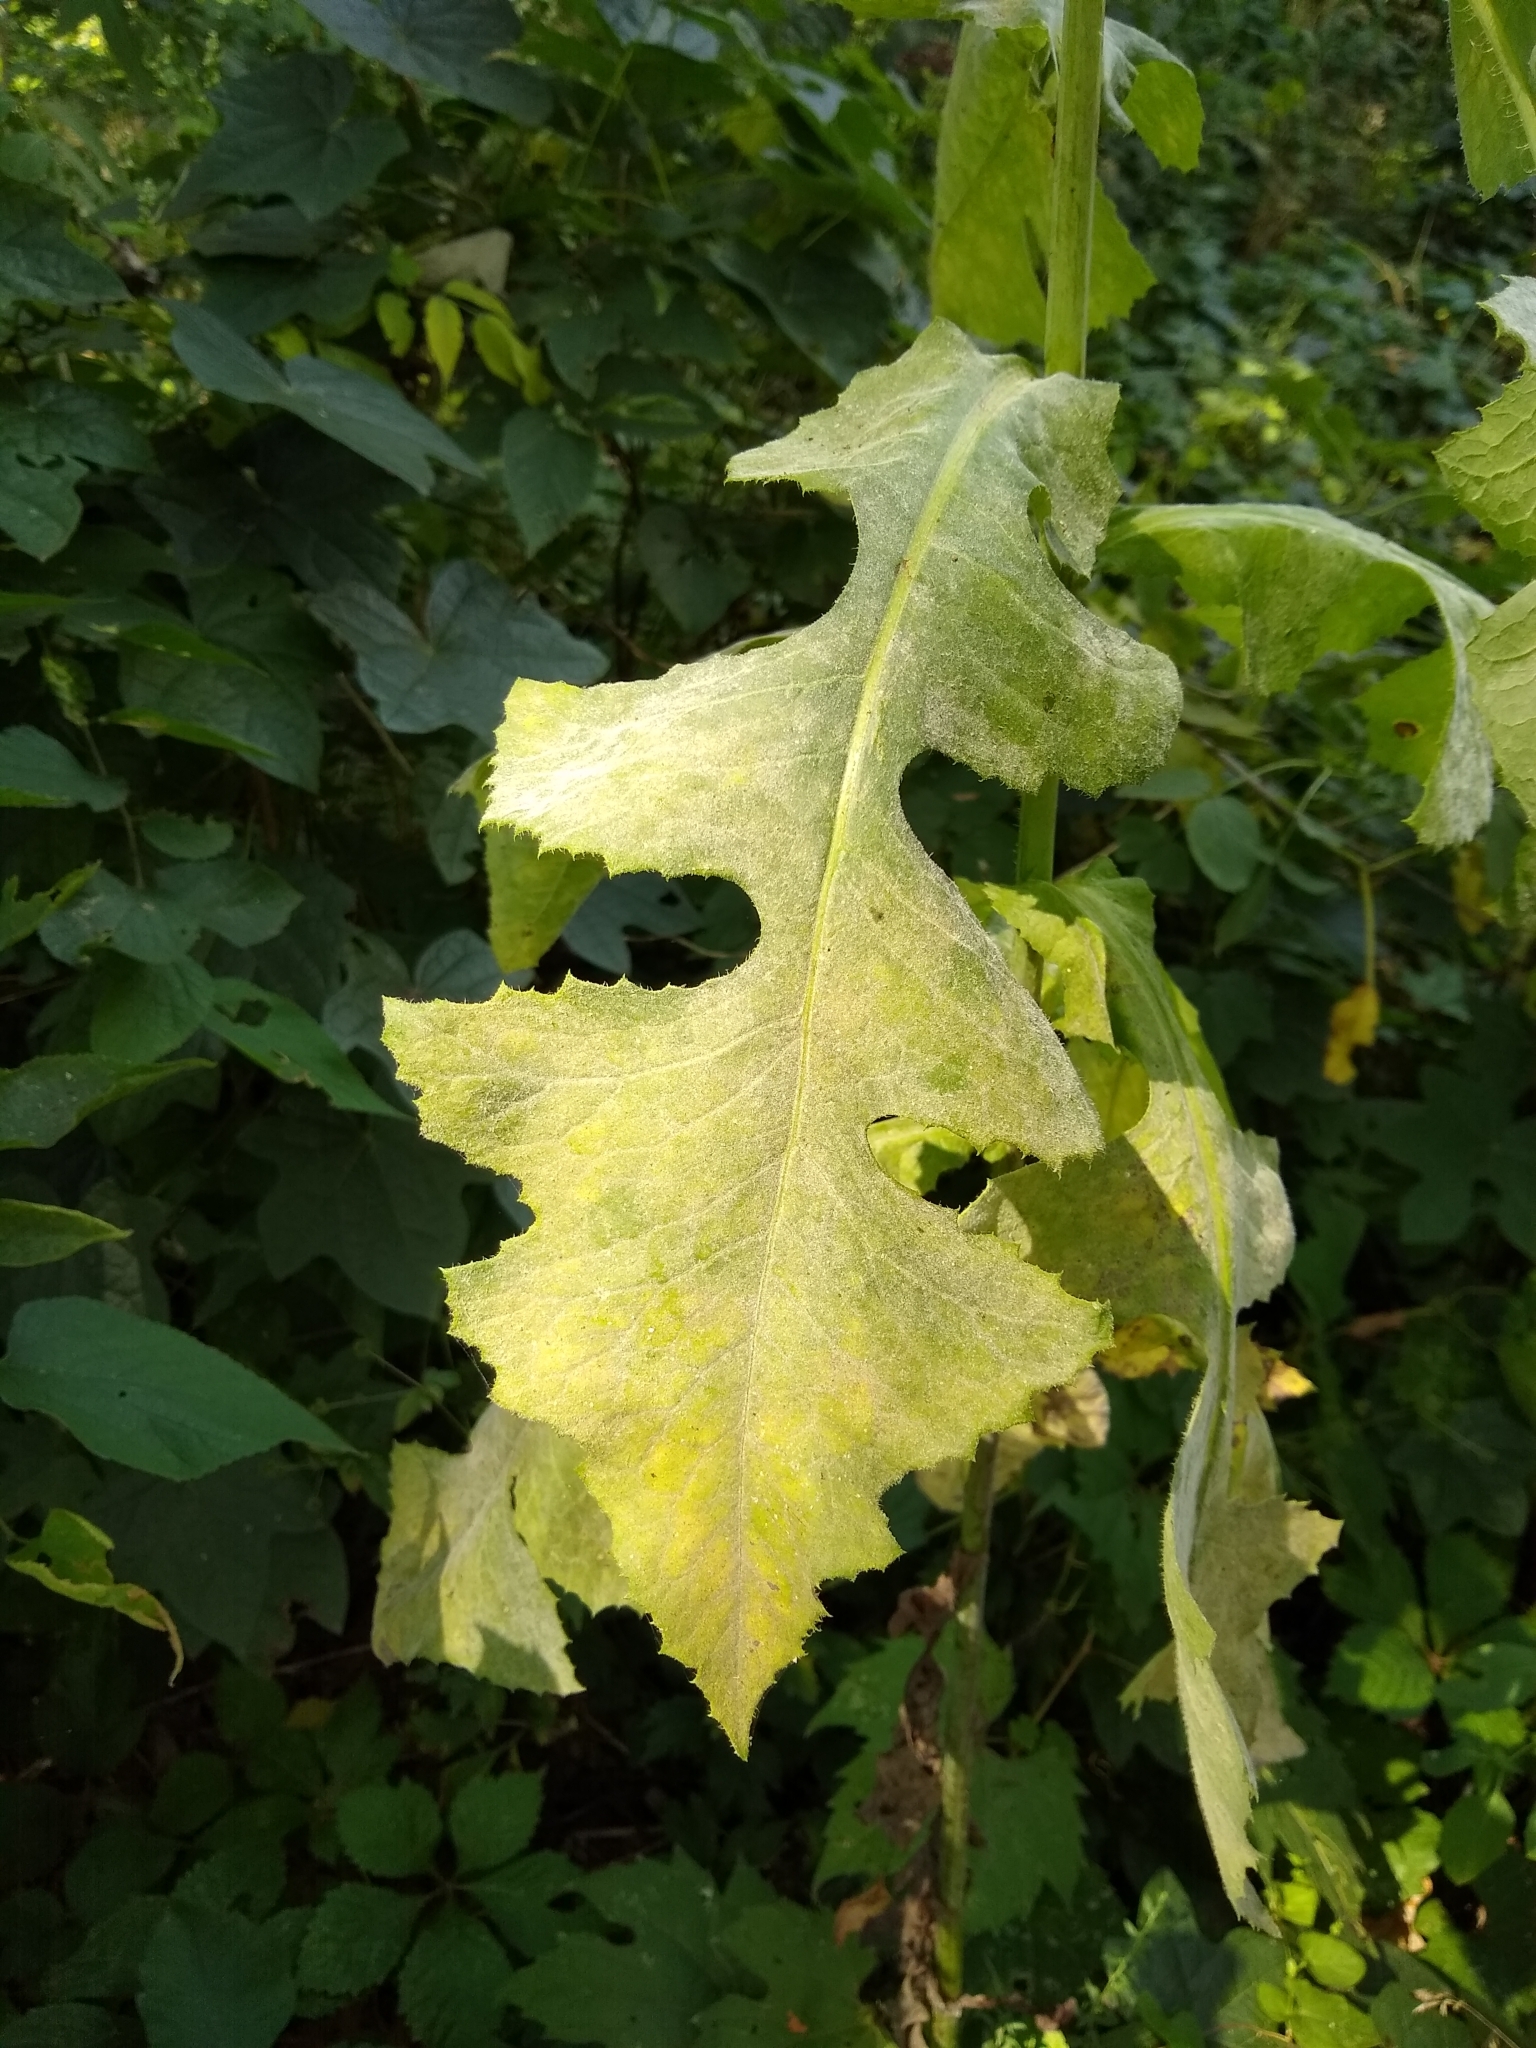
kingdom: Plantae
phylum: Tracheophyta
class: Magnoliopsida
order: Asterales
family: Asteraceae
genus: Lactuca
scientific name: Lactuca biennis
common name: Blue wood lettuce
